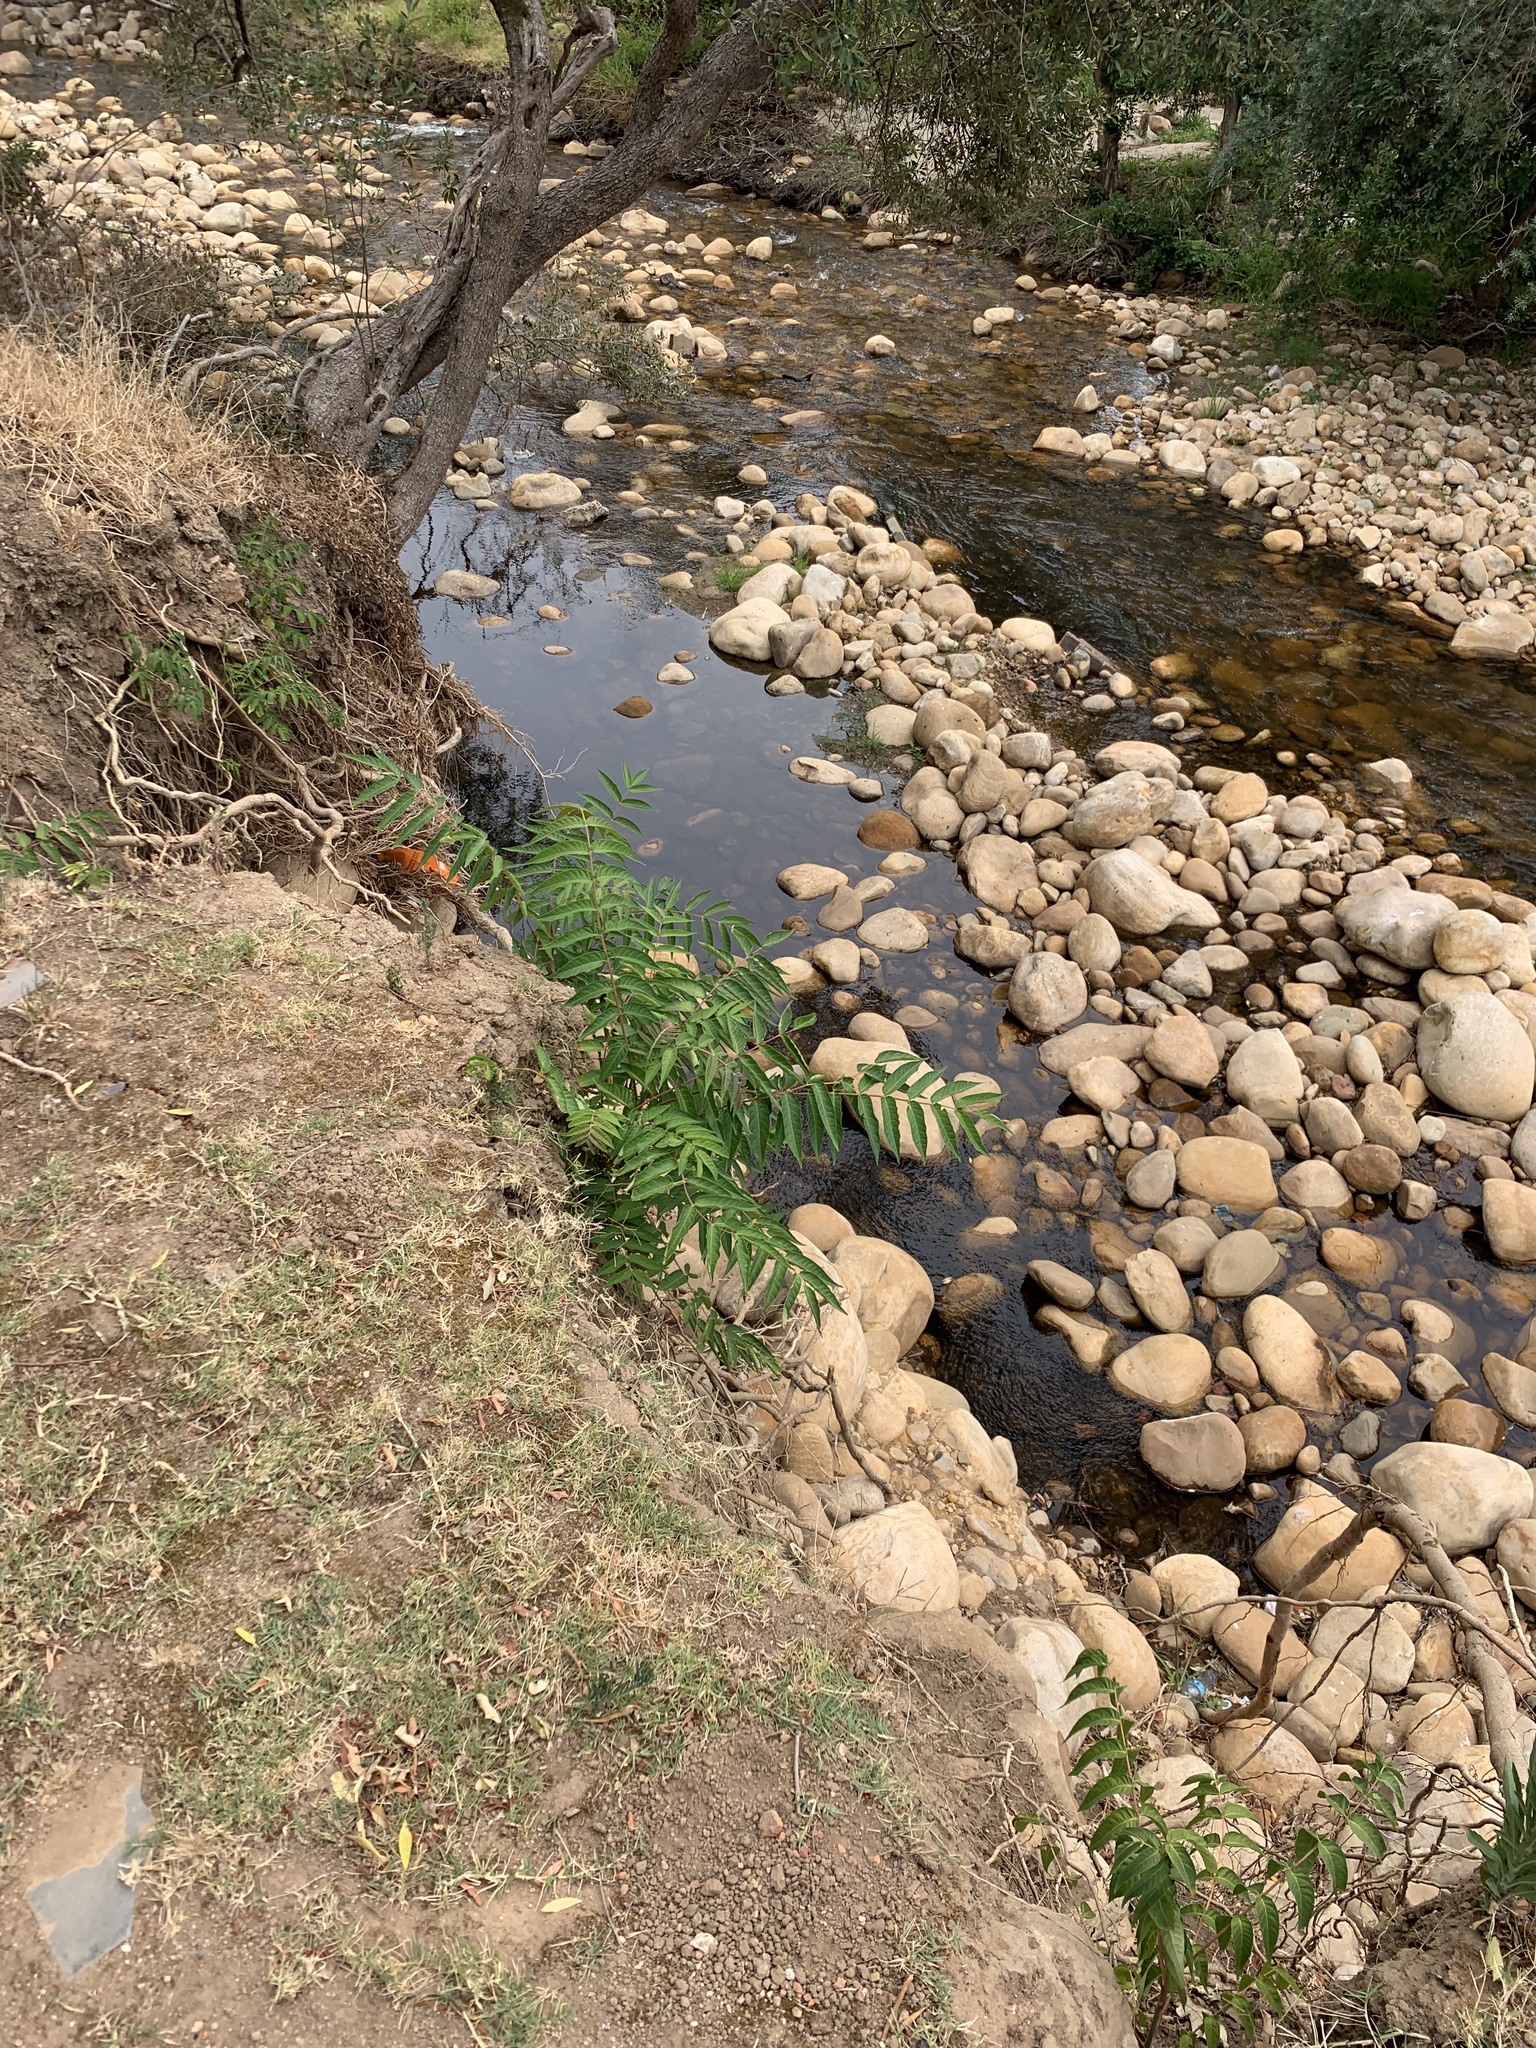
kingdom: Plantae
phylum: Tracheophyta
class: Magnoliopsida
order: Sapindales
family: Simaroubaceae
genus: Ailanthus
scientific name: Ailanthus altissima
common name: Tree-of-heaven
